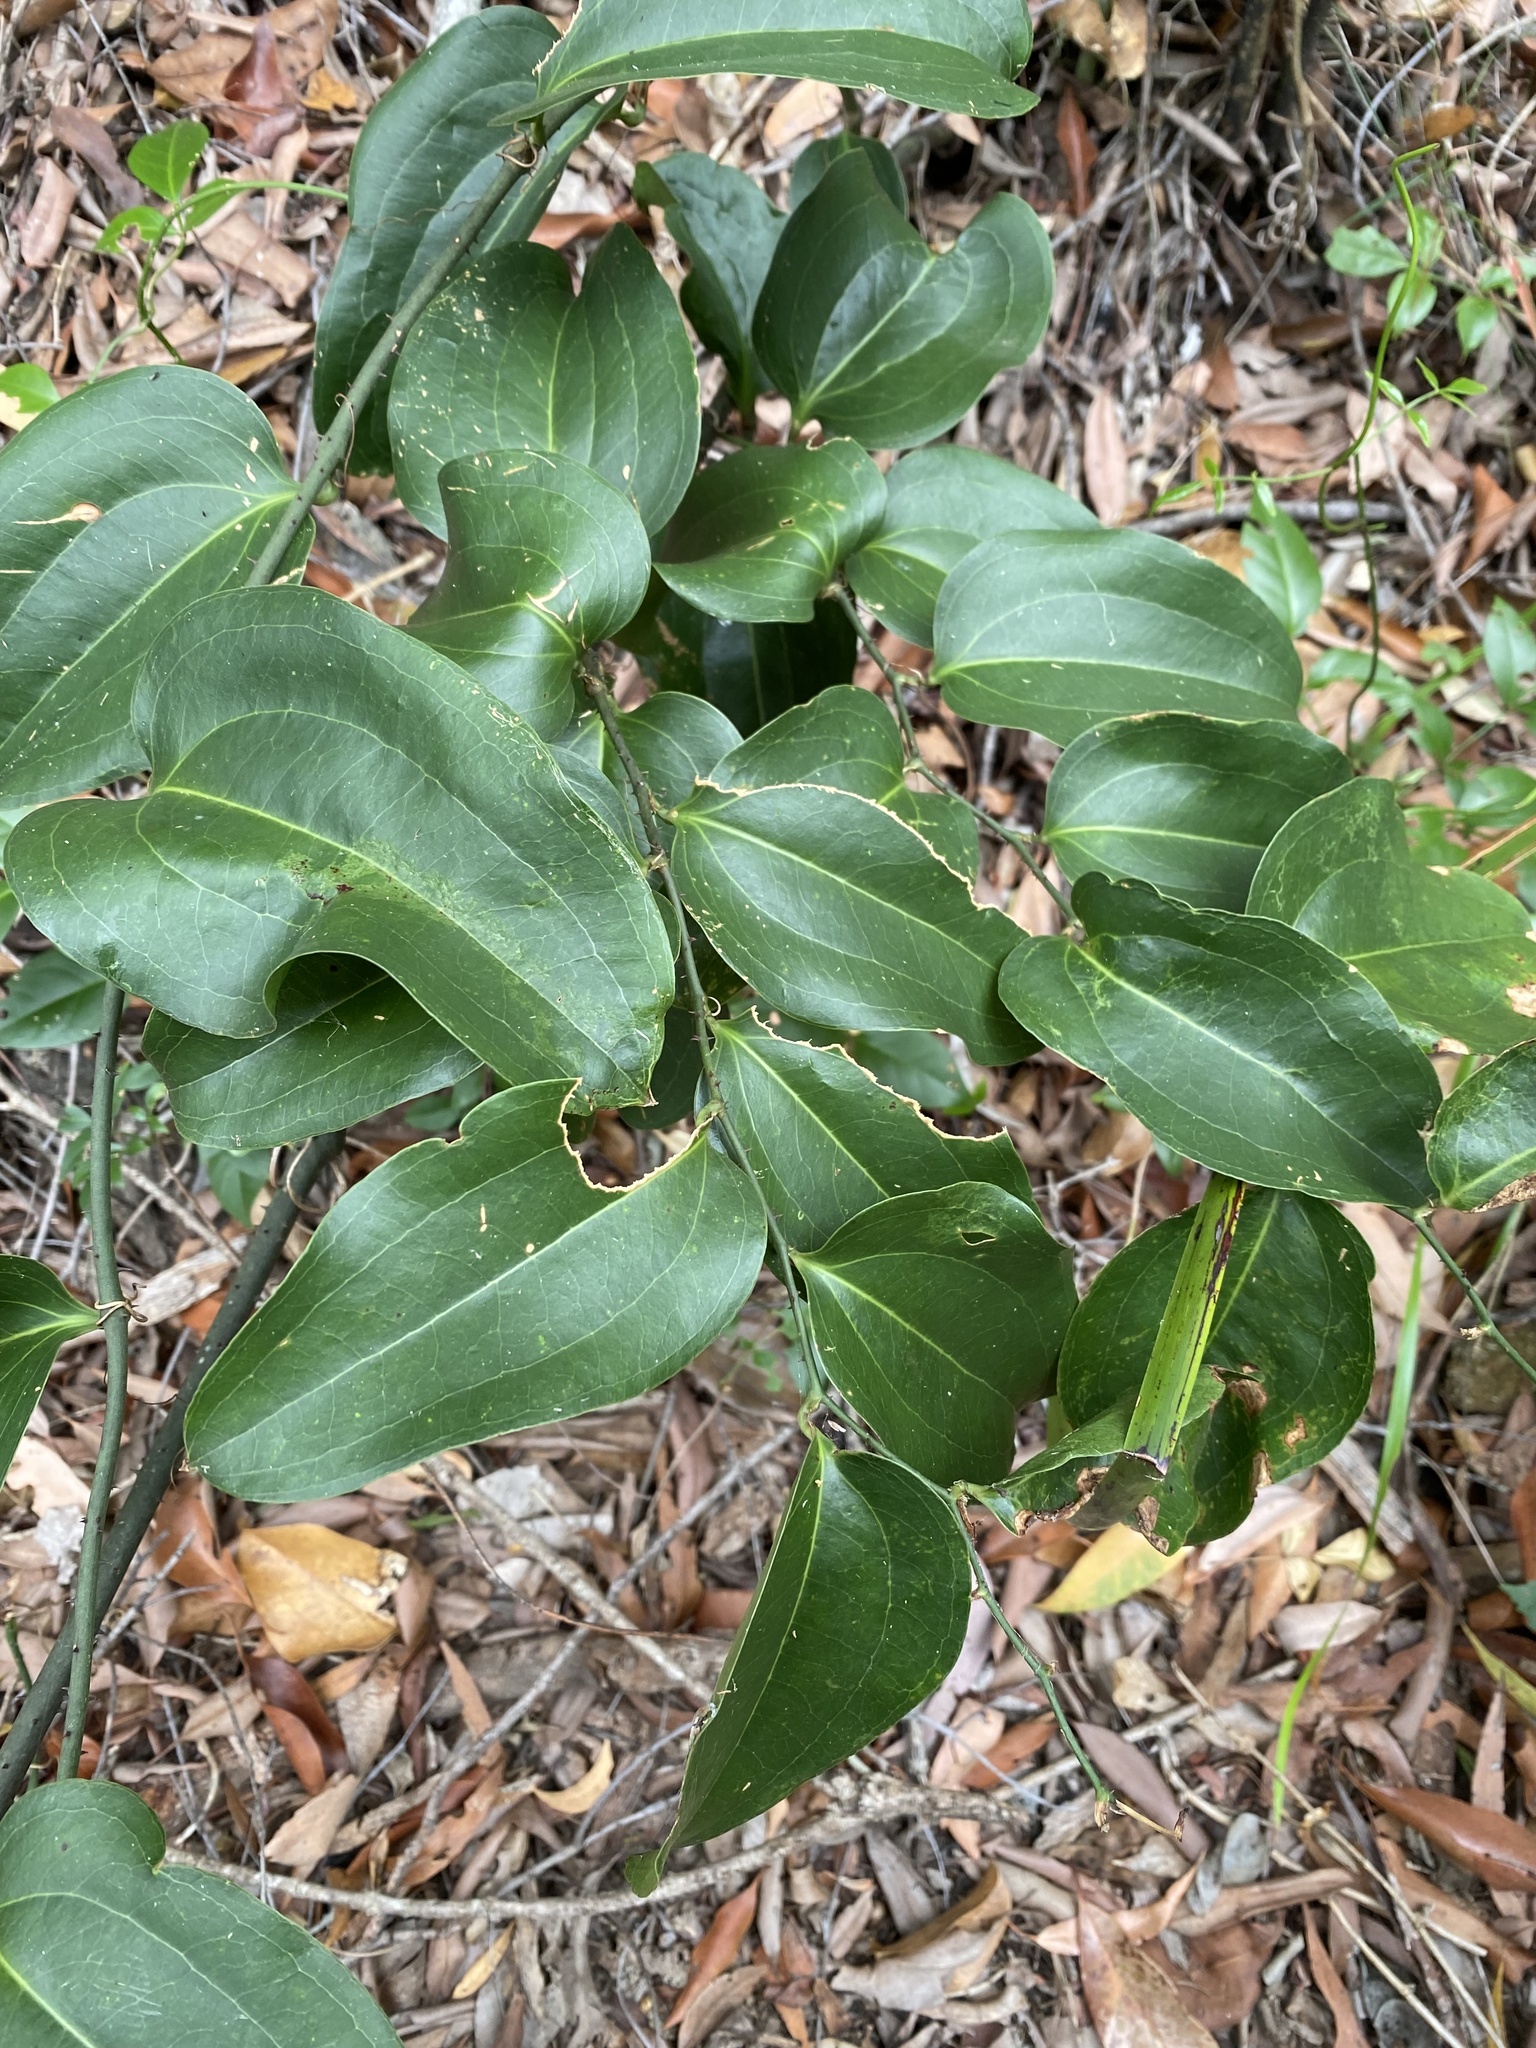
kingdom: Plantae
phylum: Tracheophyta
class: Liliopsida
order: Liliales
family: Smilacaceae
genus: Smilax
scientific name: Smilax australis
